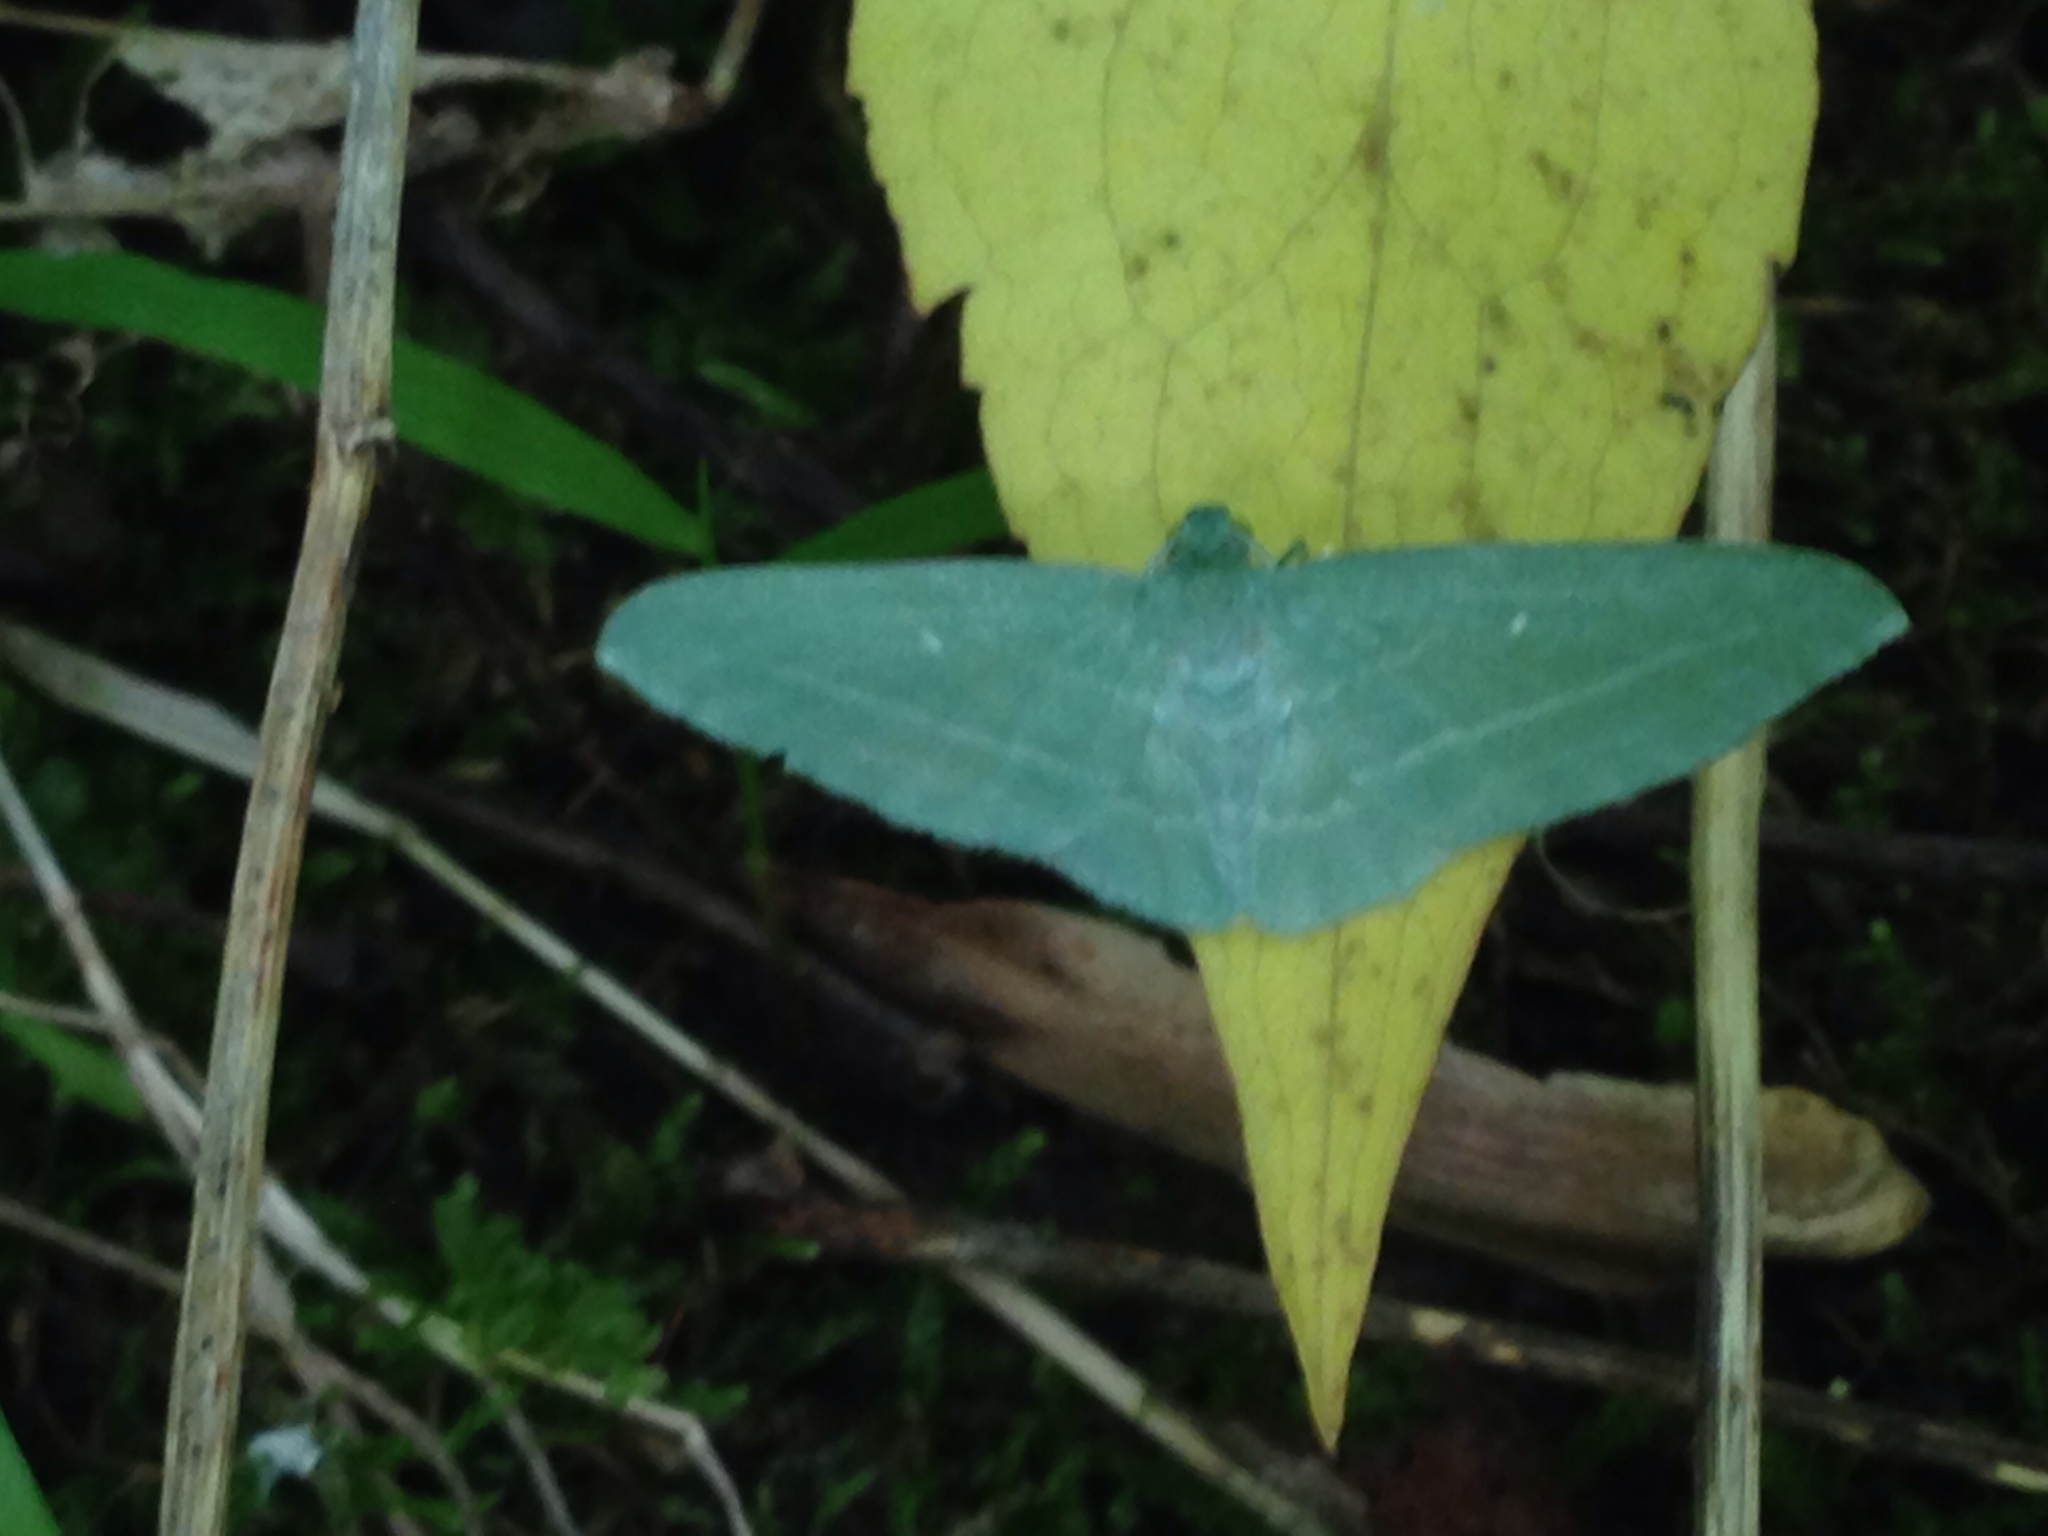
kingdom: Animalia
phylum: Arthropoda
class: Insecta
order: Lepidoptera
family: Geometridae
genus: Dyspteris
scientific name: Dyspteris abortivaria
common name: Bad-wing
